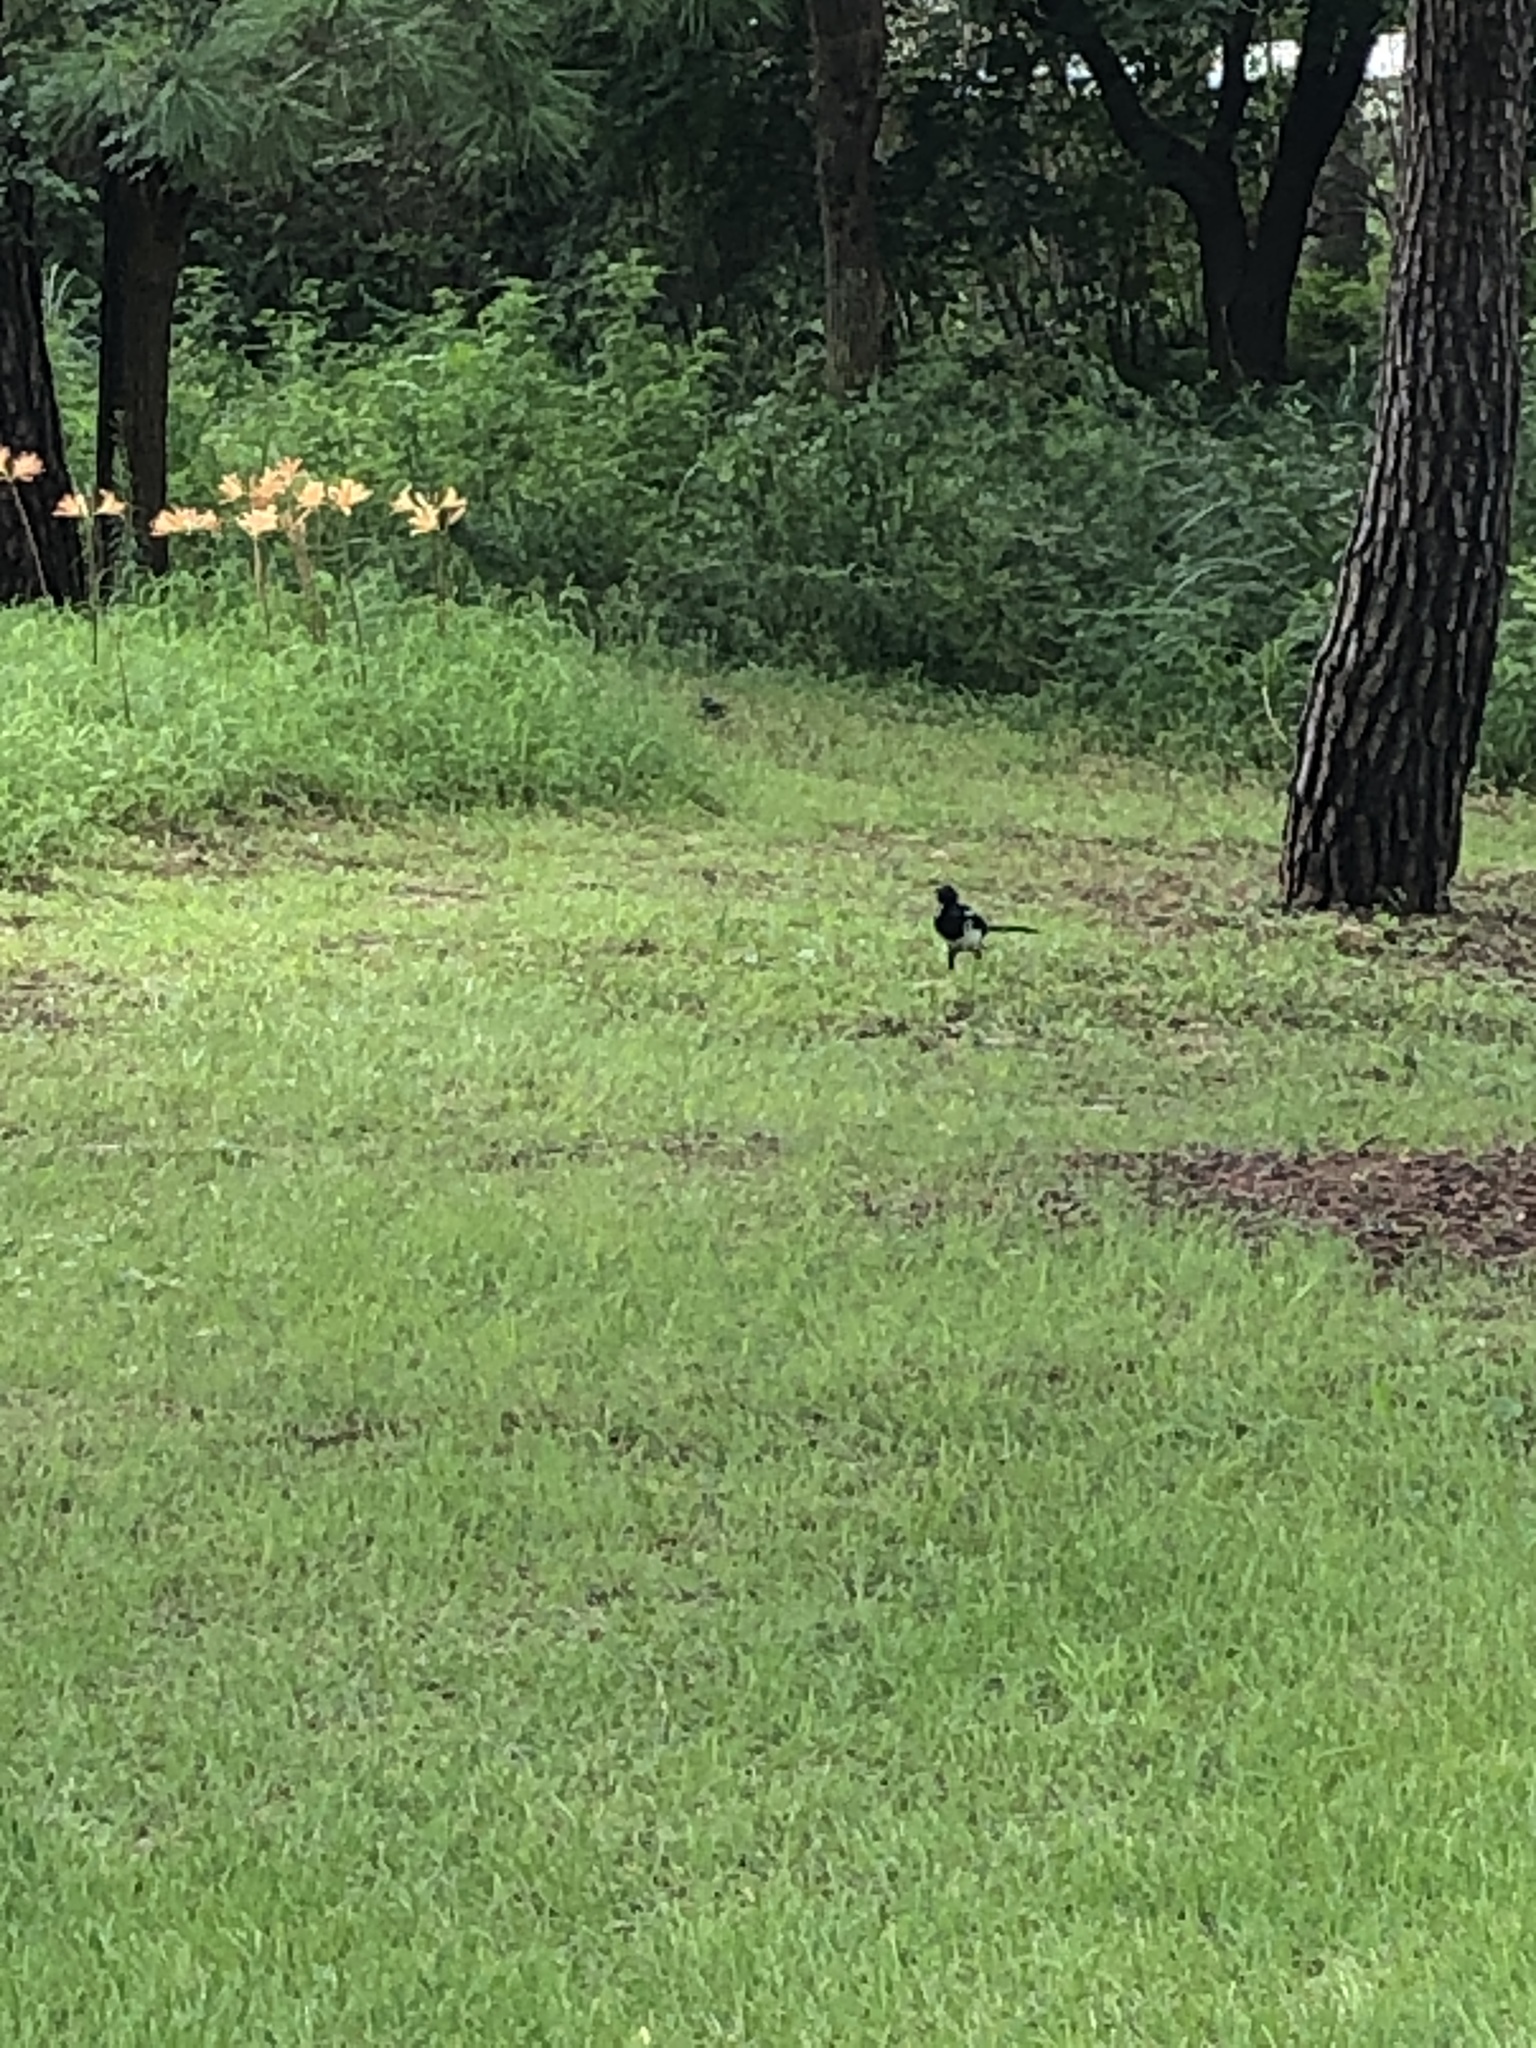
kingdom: Animalia
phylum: Chordata
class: Aves
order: Passeriformes
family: Corvidae
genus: Pica
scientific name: Pica serica
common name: Oriental magpie
